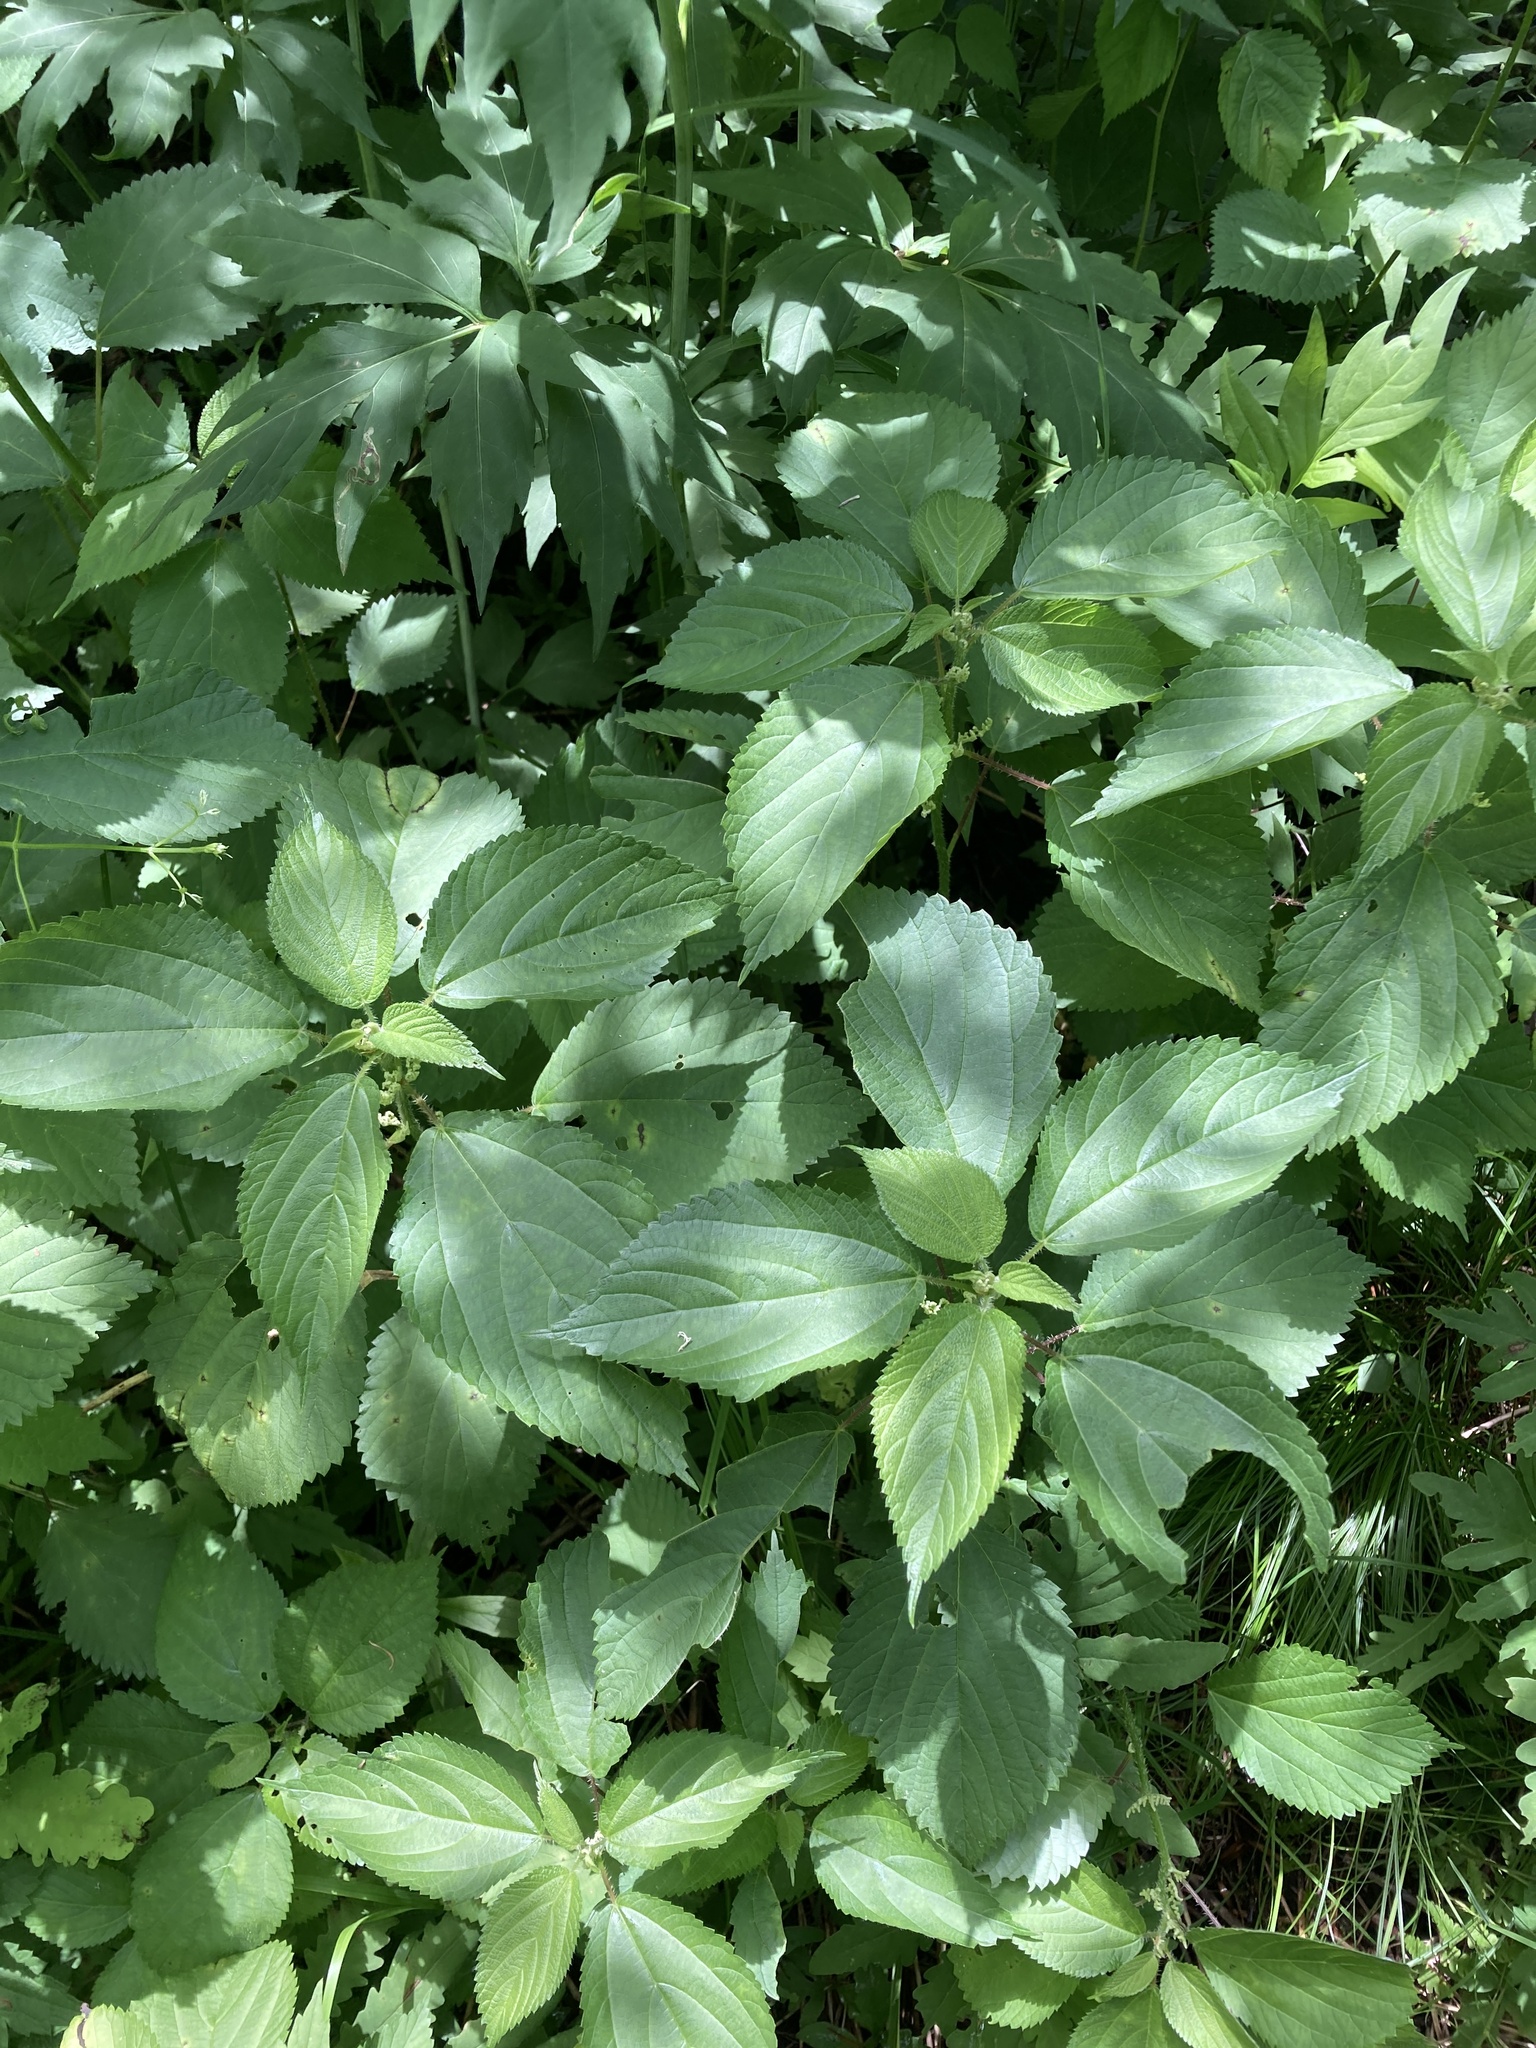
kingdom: Plantae
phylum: Tracheophyta
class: Magnoliopsida
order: Rosales
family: Urticaceae
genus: Laportea
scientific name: Laportea canadensis
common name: Canada nettle
